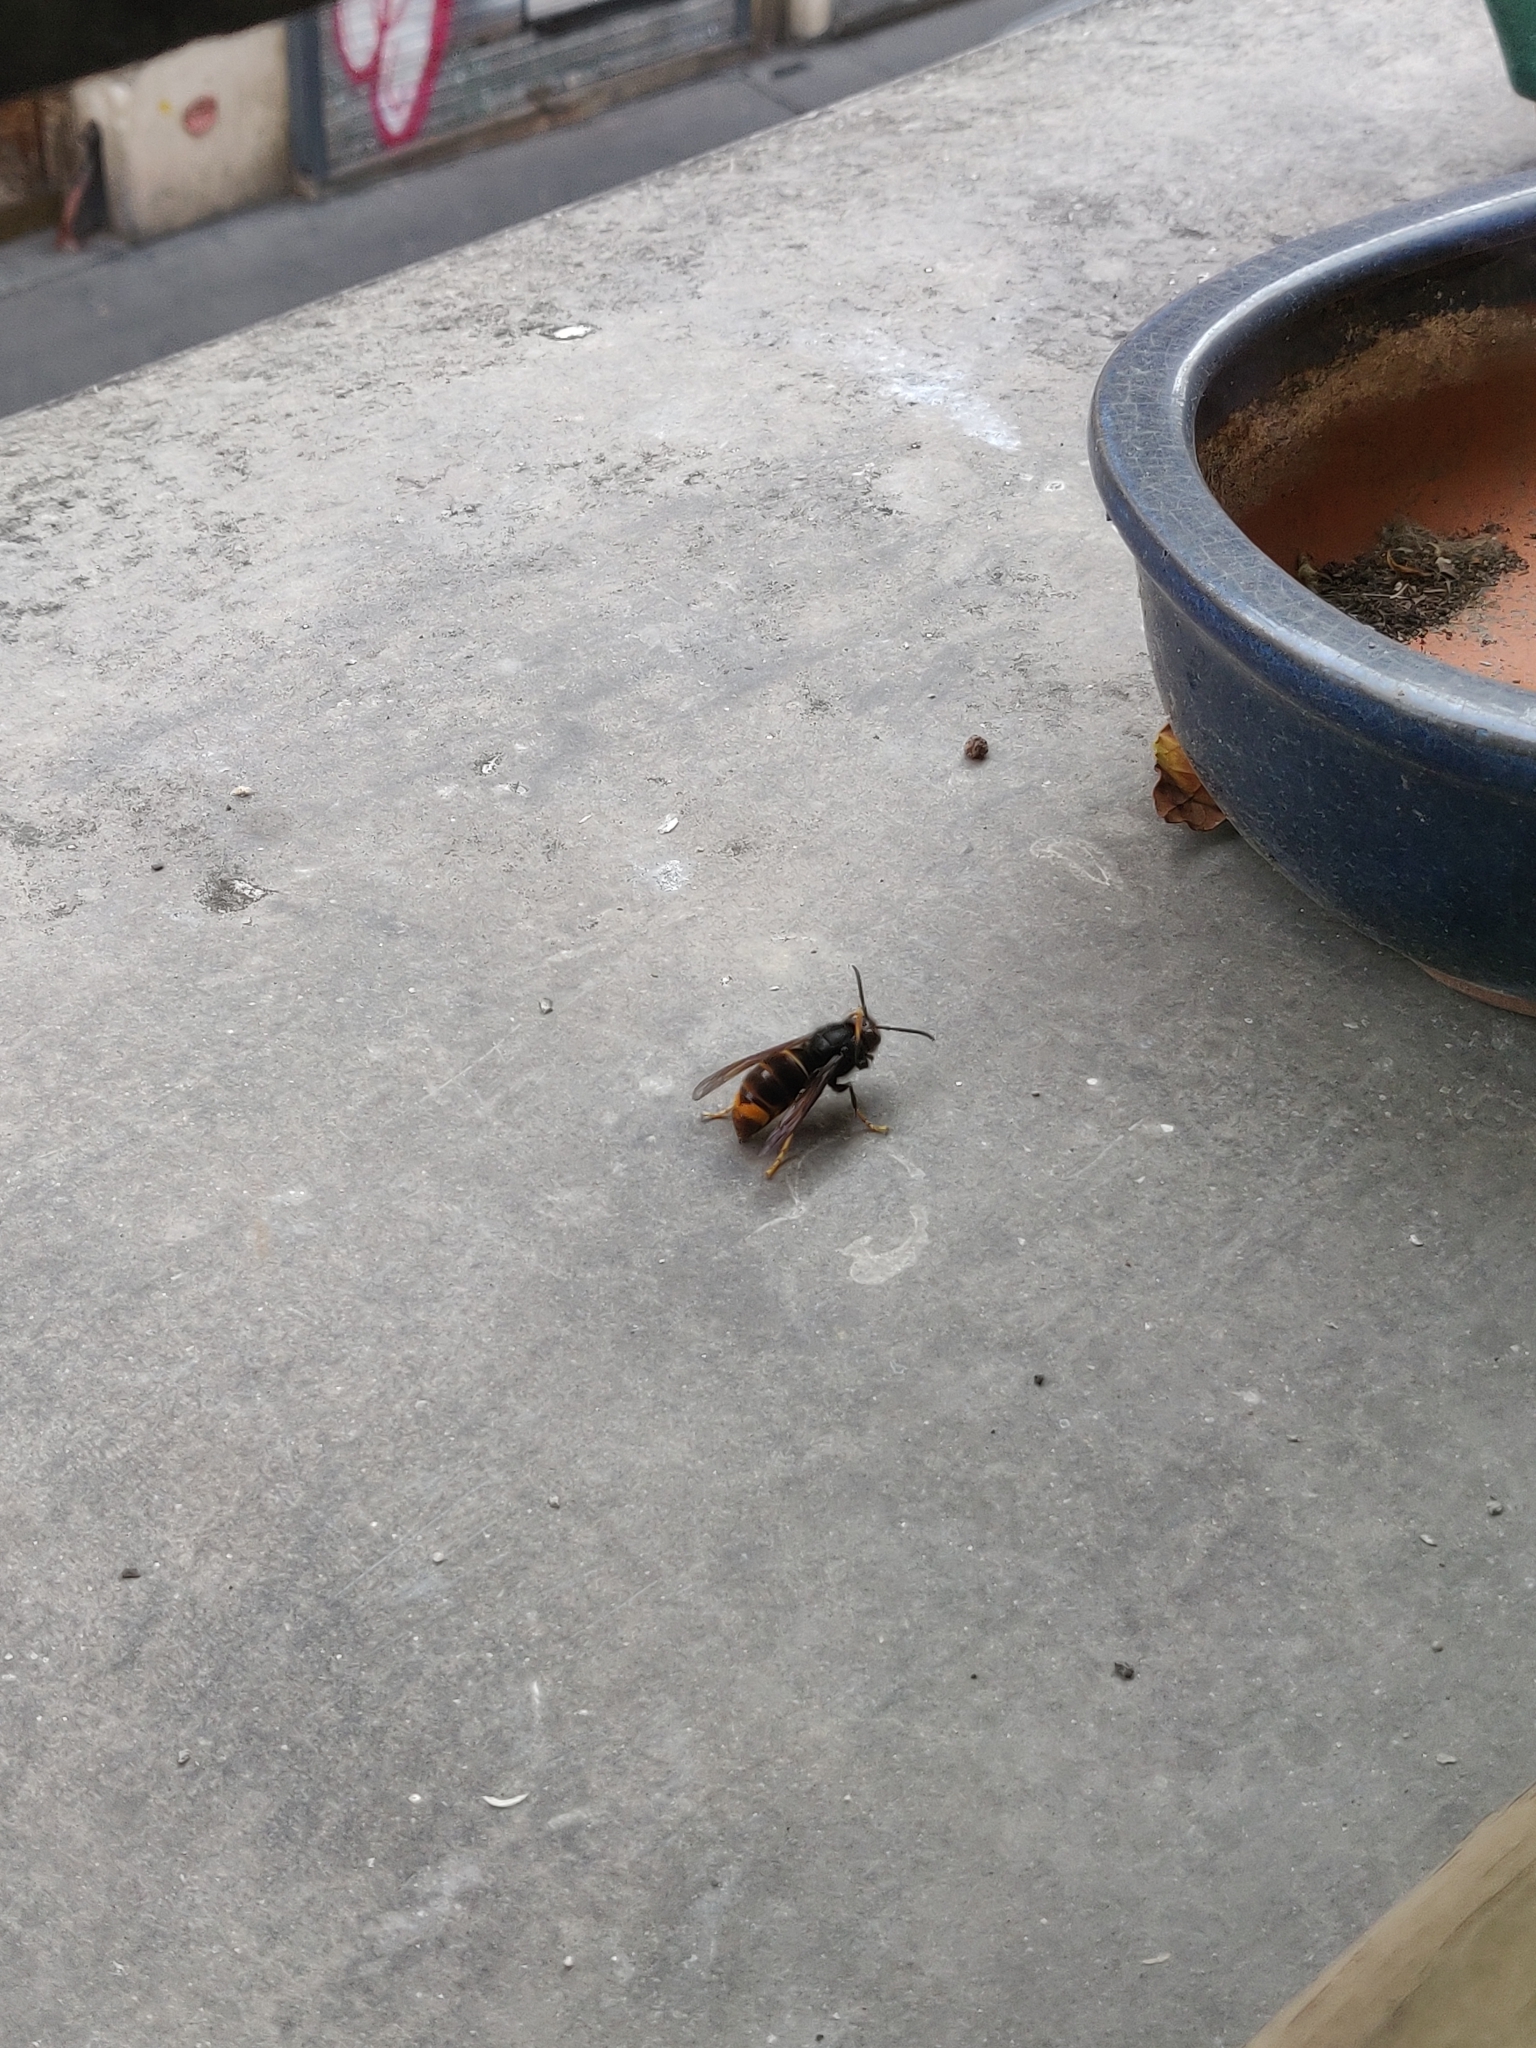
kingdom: Animalia
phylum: Arthropoda
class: Insecta
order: Hymenoptera
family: Vespidae
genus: Vespa
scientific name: Vespa velutina
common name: Asian hornet
